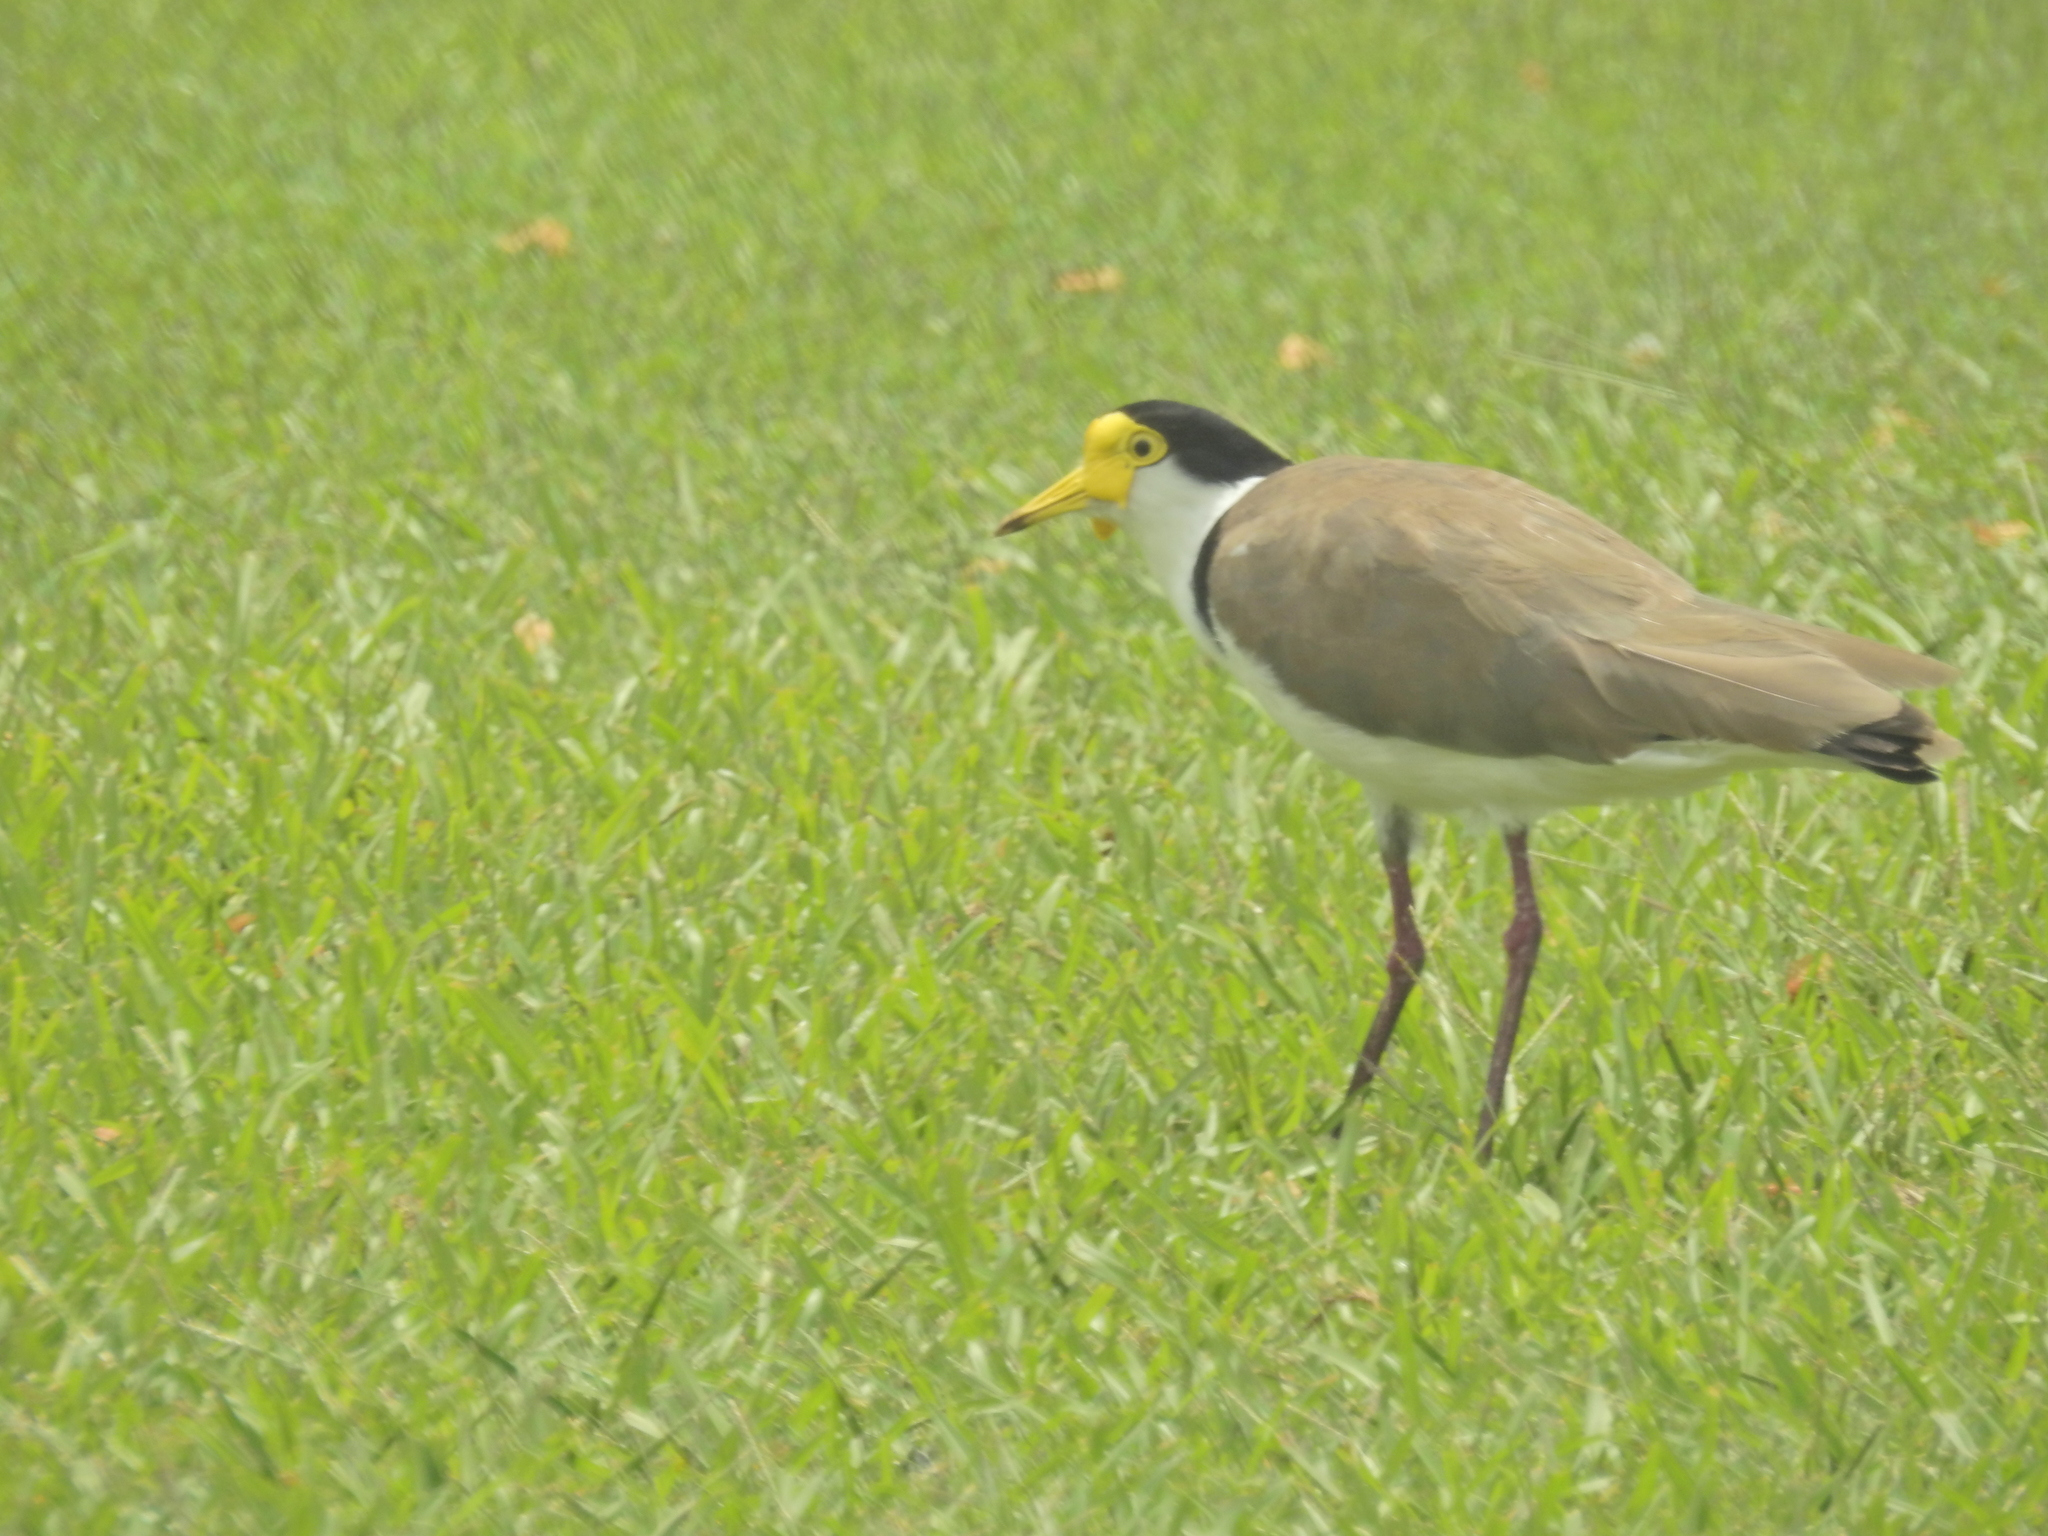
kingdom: Animalia
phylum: Chordata
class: Aves
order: Charadriiformes
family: Charadriidae
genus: Vanellus
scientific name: Vanellus miles
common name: Masked lapwing
